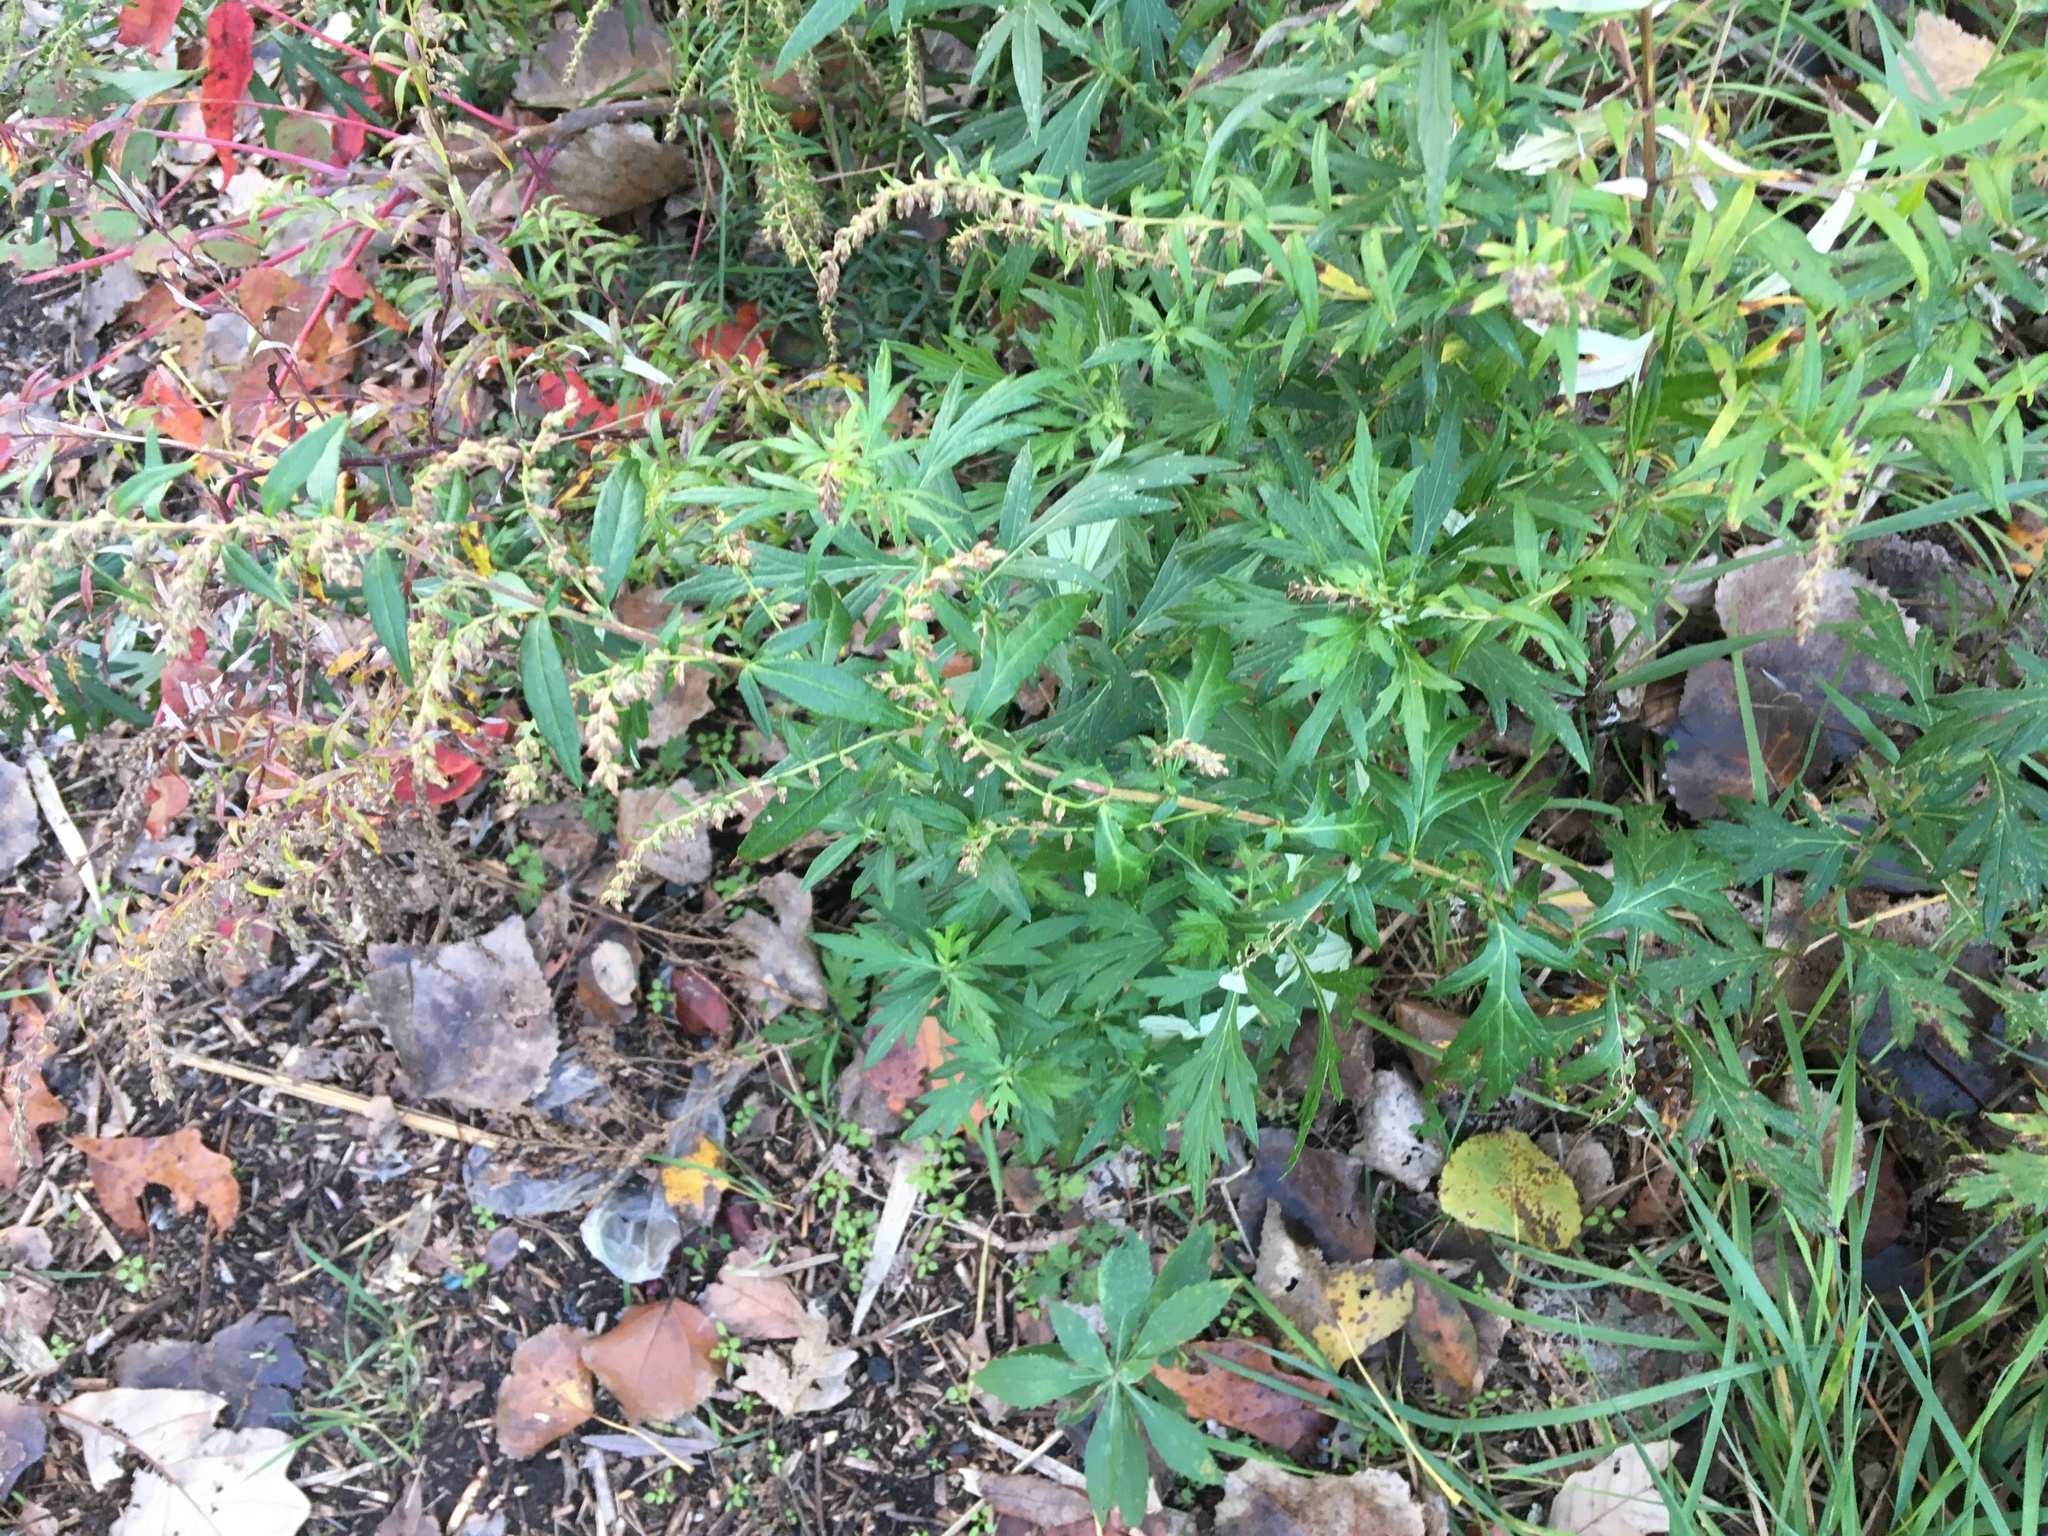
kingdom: Plantae
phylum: Tracheophyta
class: Magnoliopsida
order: Asterales
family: Asteraceae
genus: Artemisia
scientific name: Artemisia vulgaris
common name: Mugwort
